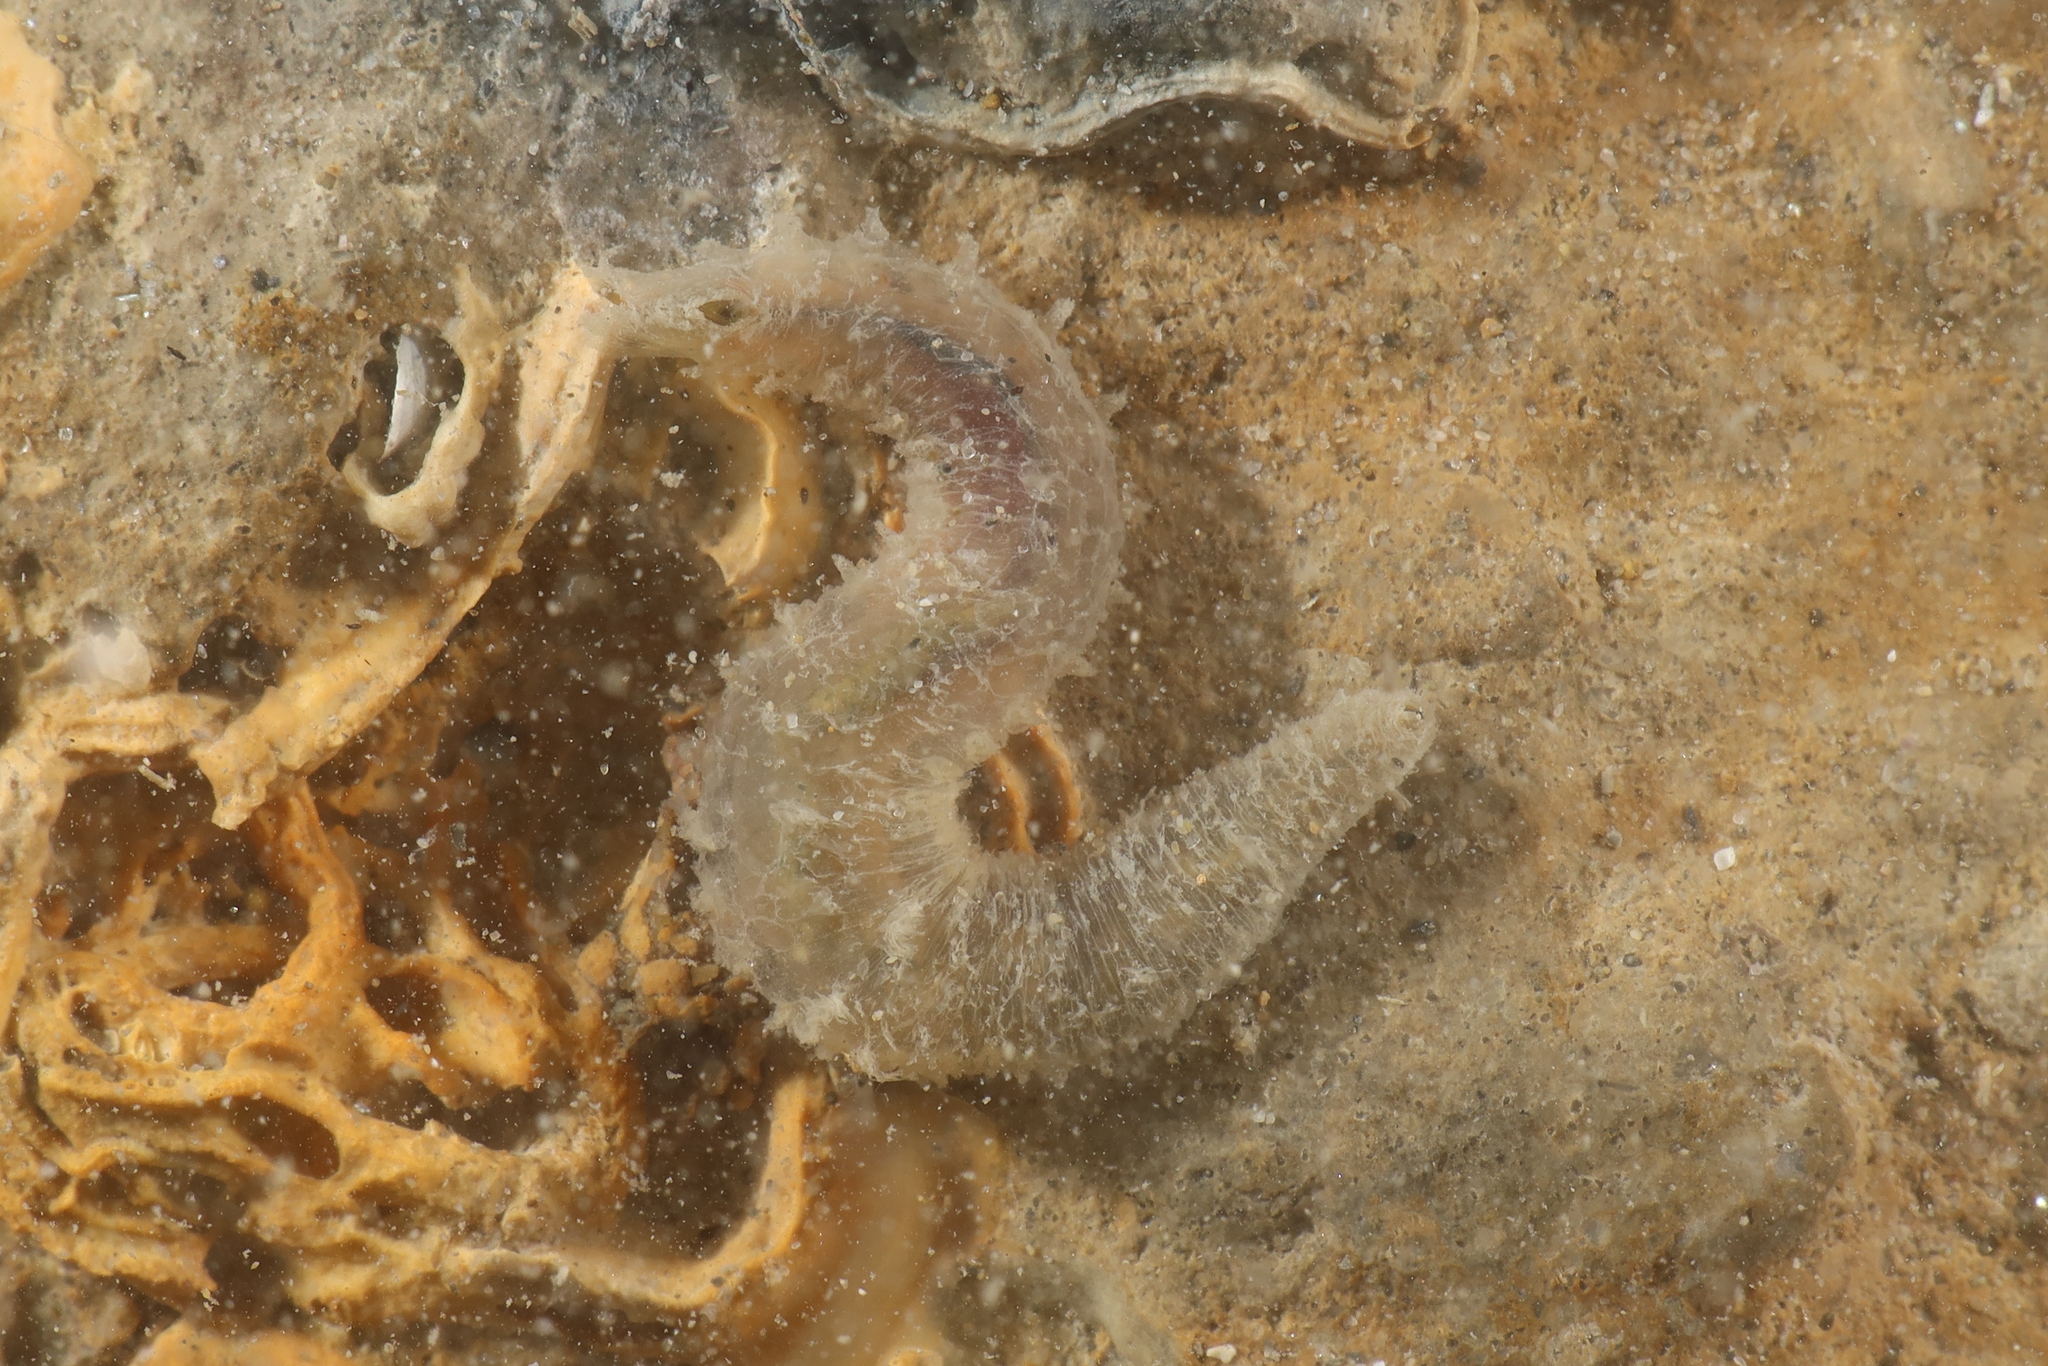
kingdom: Animalia
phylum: Annelida
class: Polychaeta
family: Flabelligeridae
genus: Flabelligera
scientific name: Flabelligera affinis
